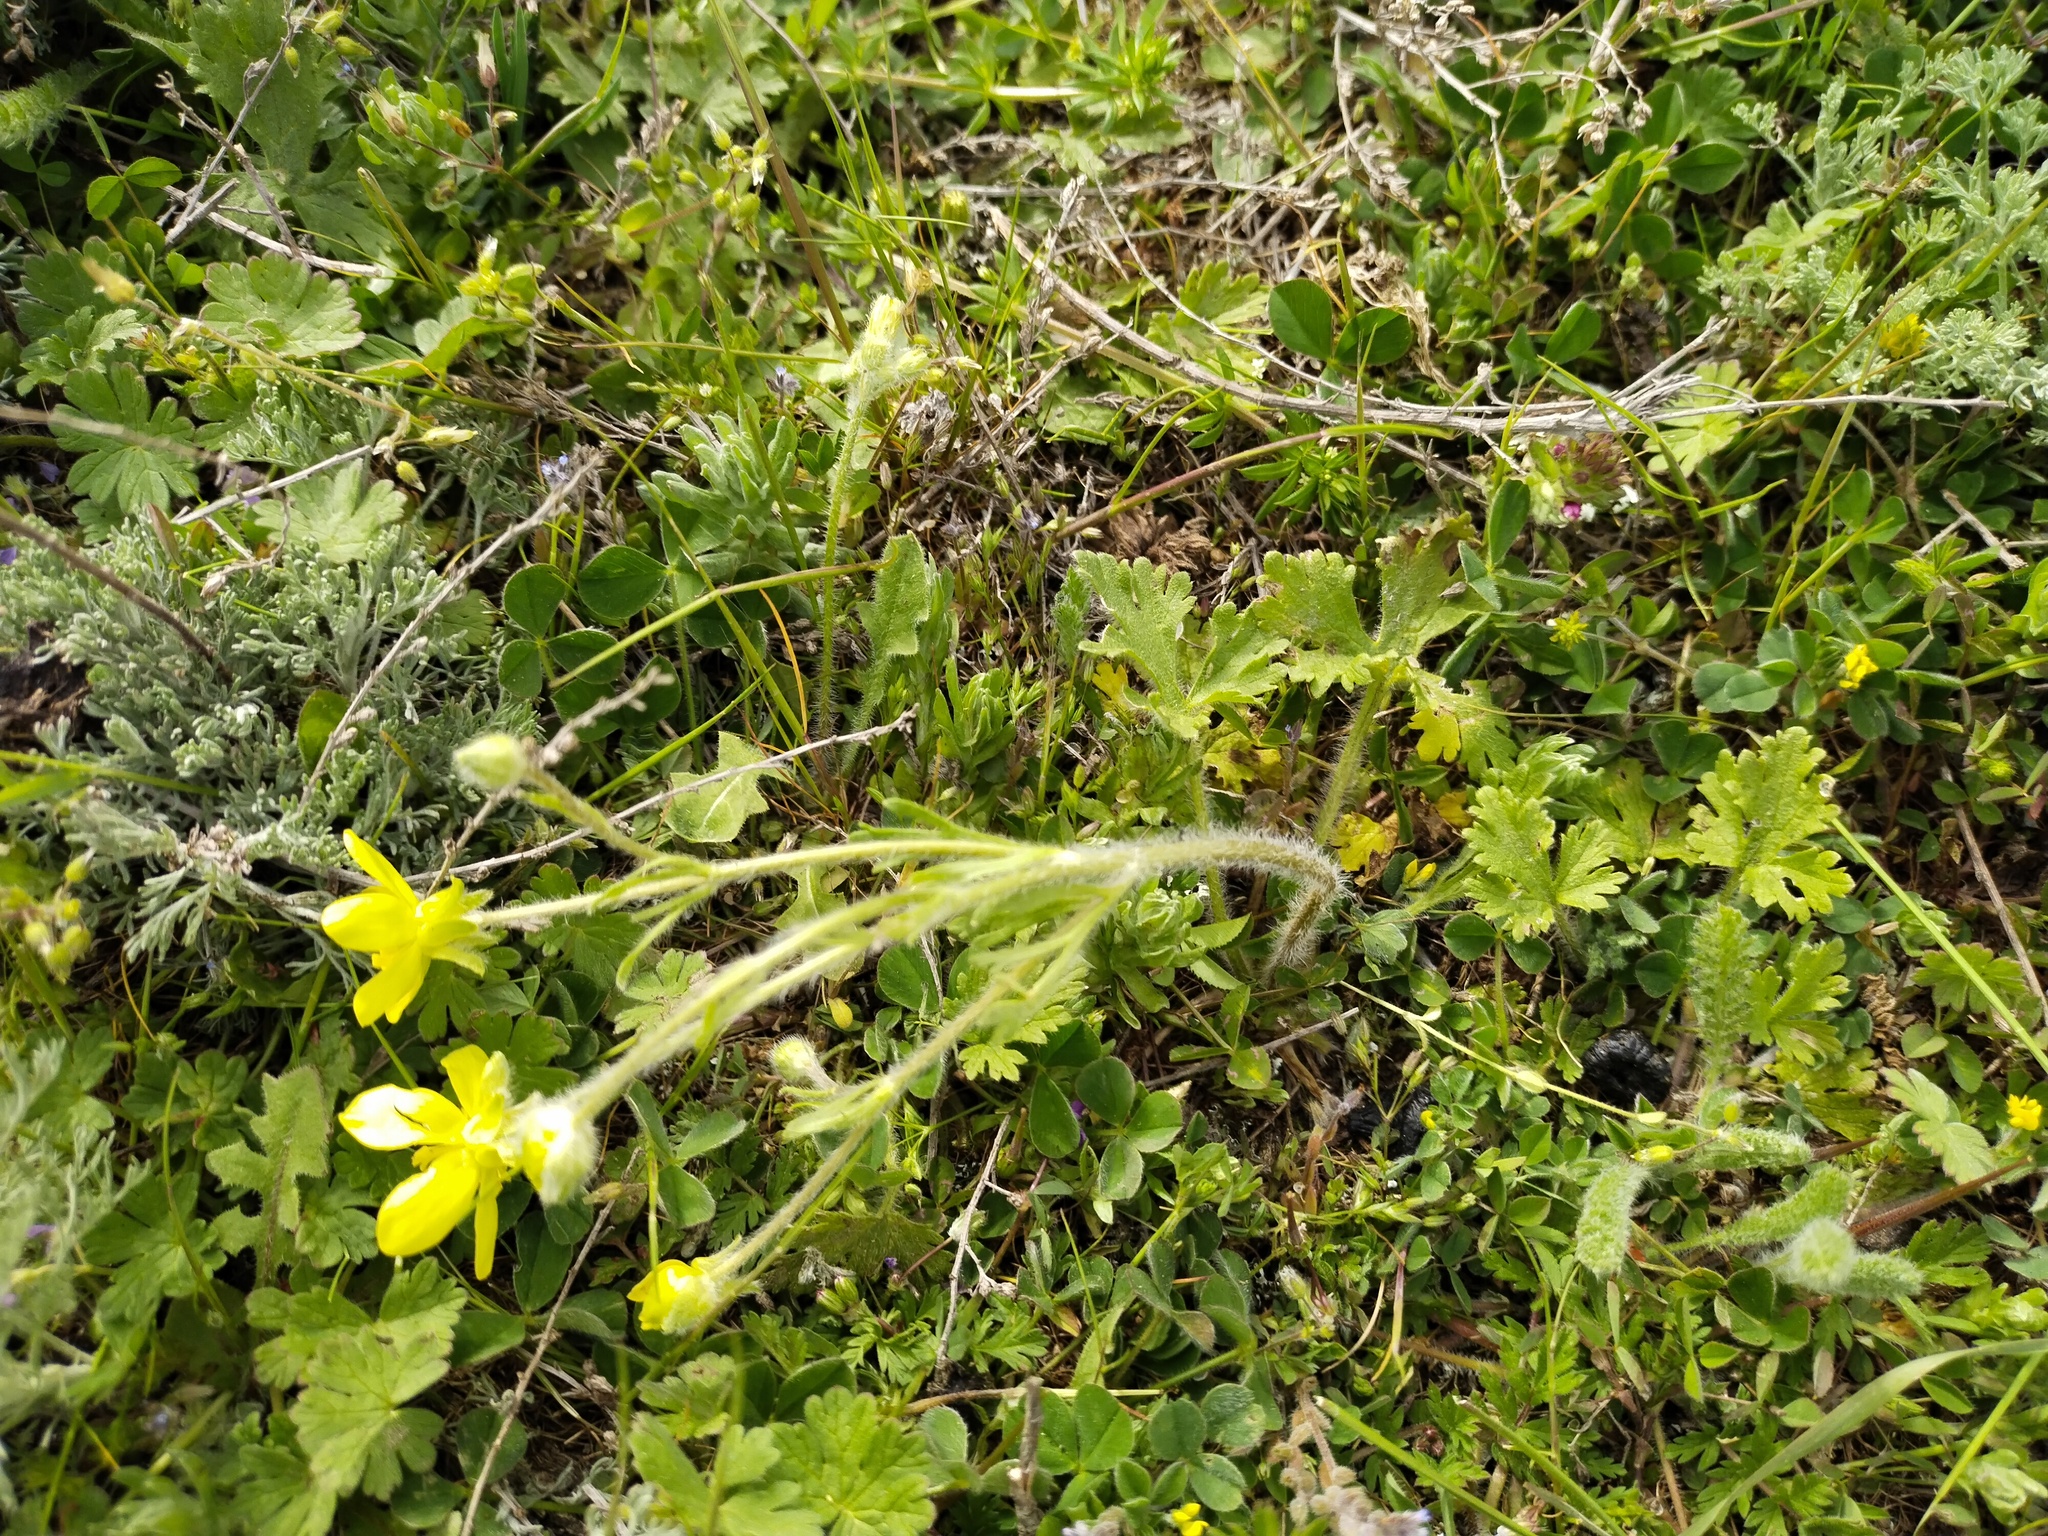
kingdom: Plantae
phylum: Tracheophyta
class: Magnoliopsida
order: Ranunculales
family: Ranunculaceae
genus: Ranunculus
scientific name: Ranunculus oxyspermus
